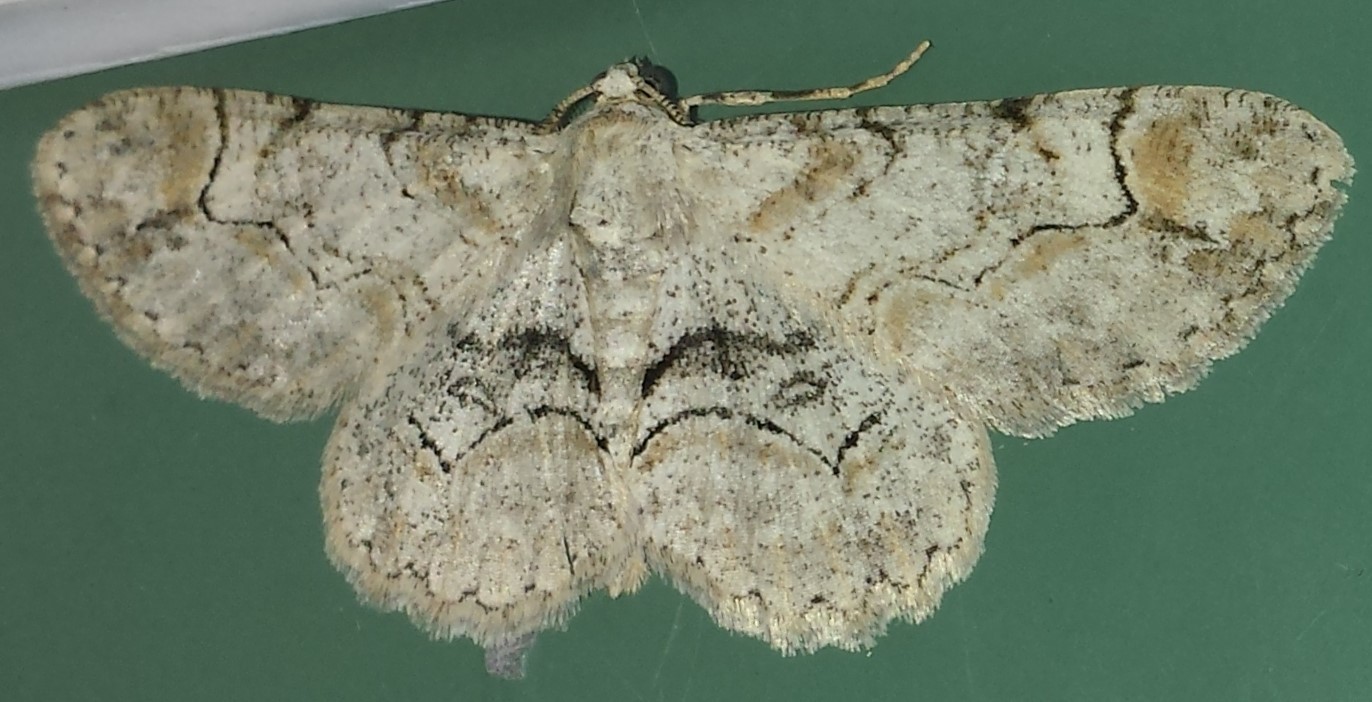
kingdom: Animalia
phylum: Arthropoda
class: Insecta
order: Lepidoptera
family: Geometridae
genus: Iridopsis
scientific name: Iridopsis larvaria
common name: Bent-line gray
